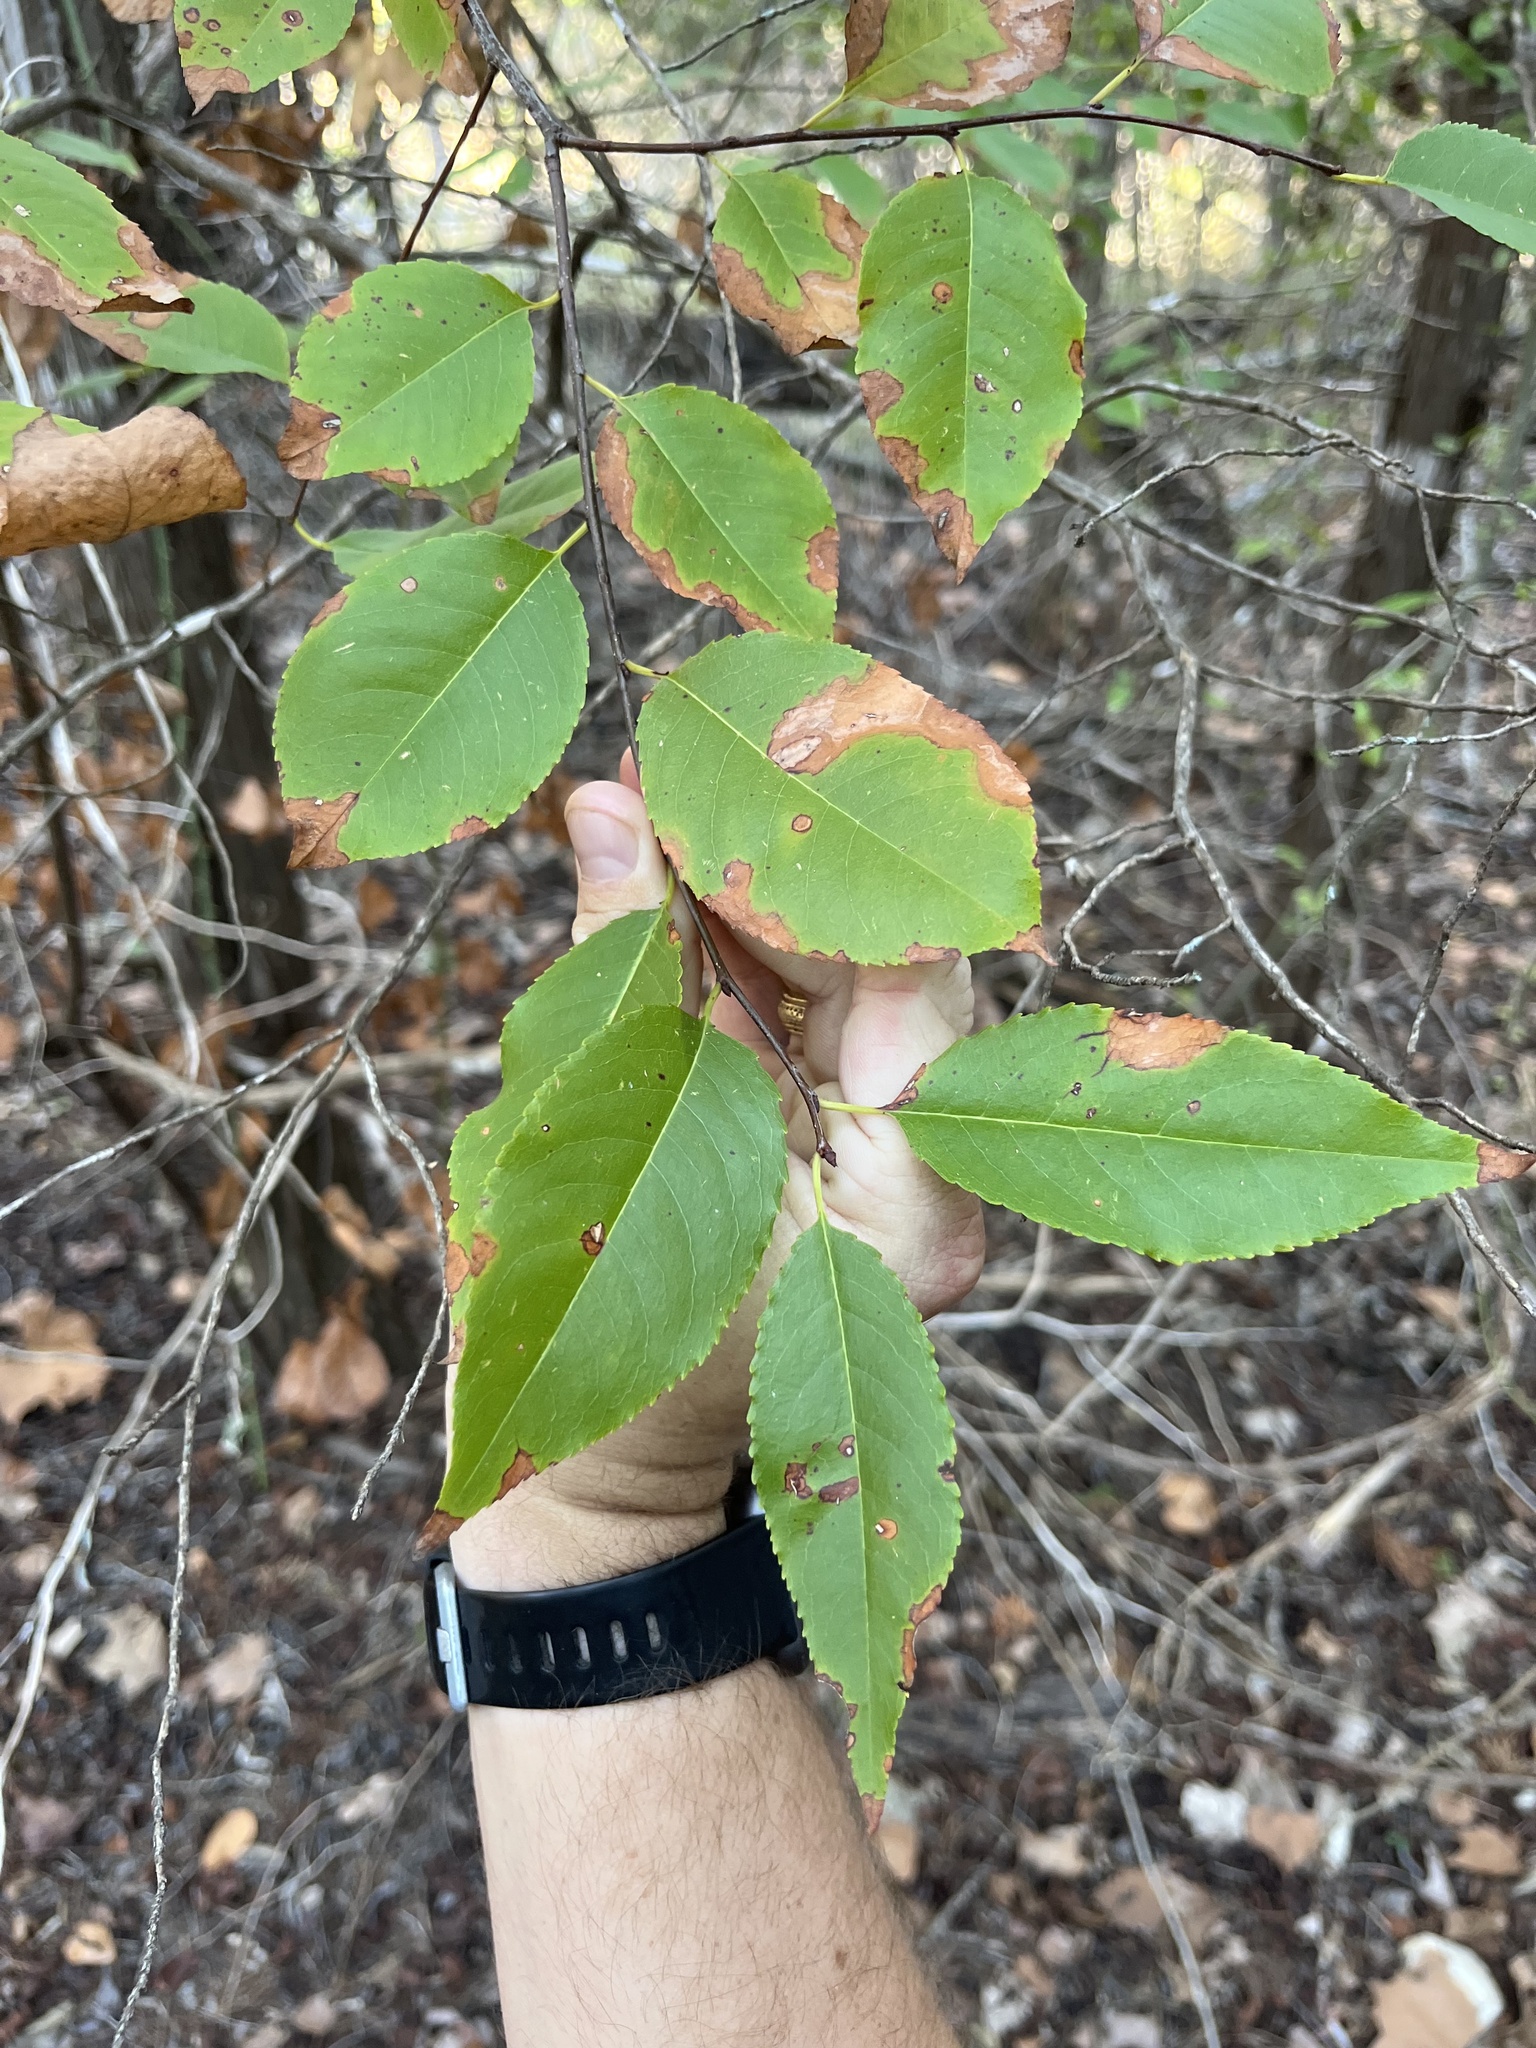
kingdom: Plantae
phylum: Tracheophyta
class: Magnoliopsida
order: Rosales
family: Rosaceae
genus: Prunus
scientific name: Prunus serotina
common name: Black cherry
